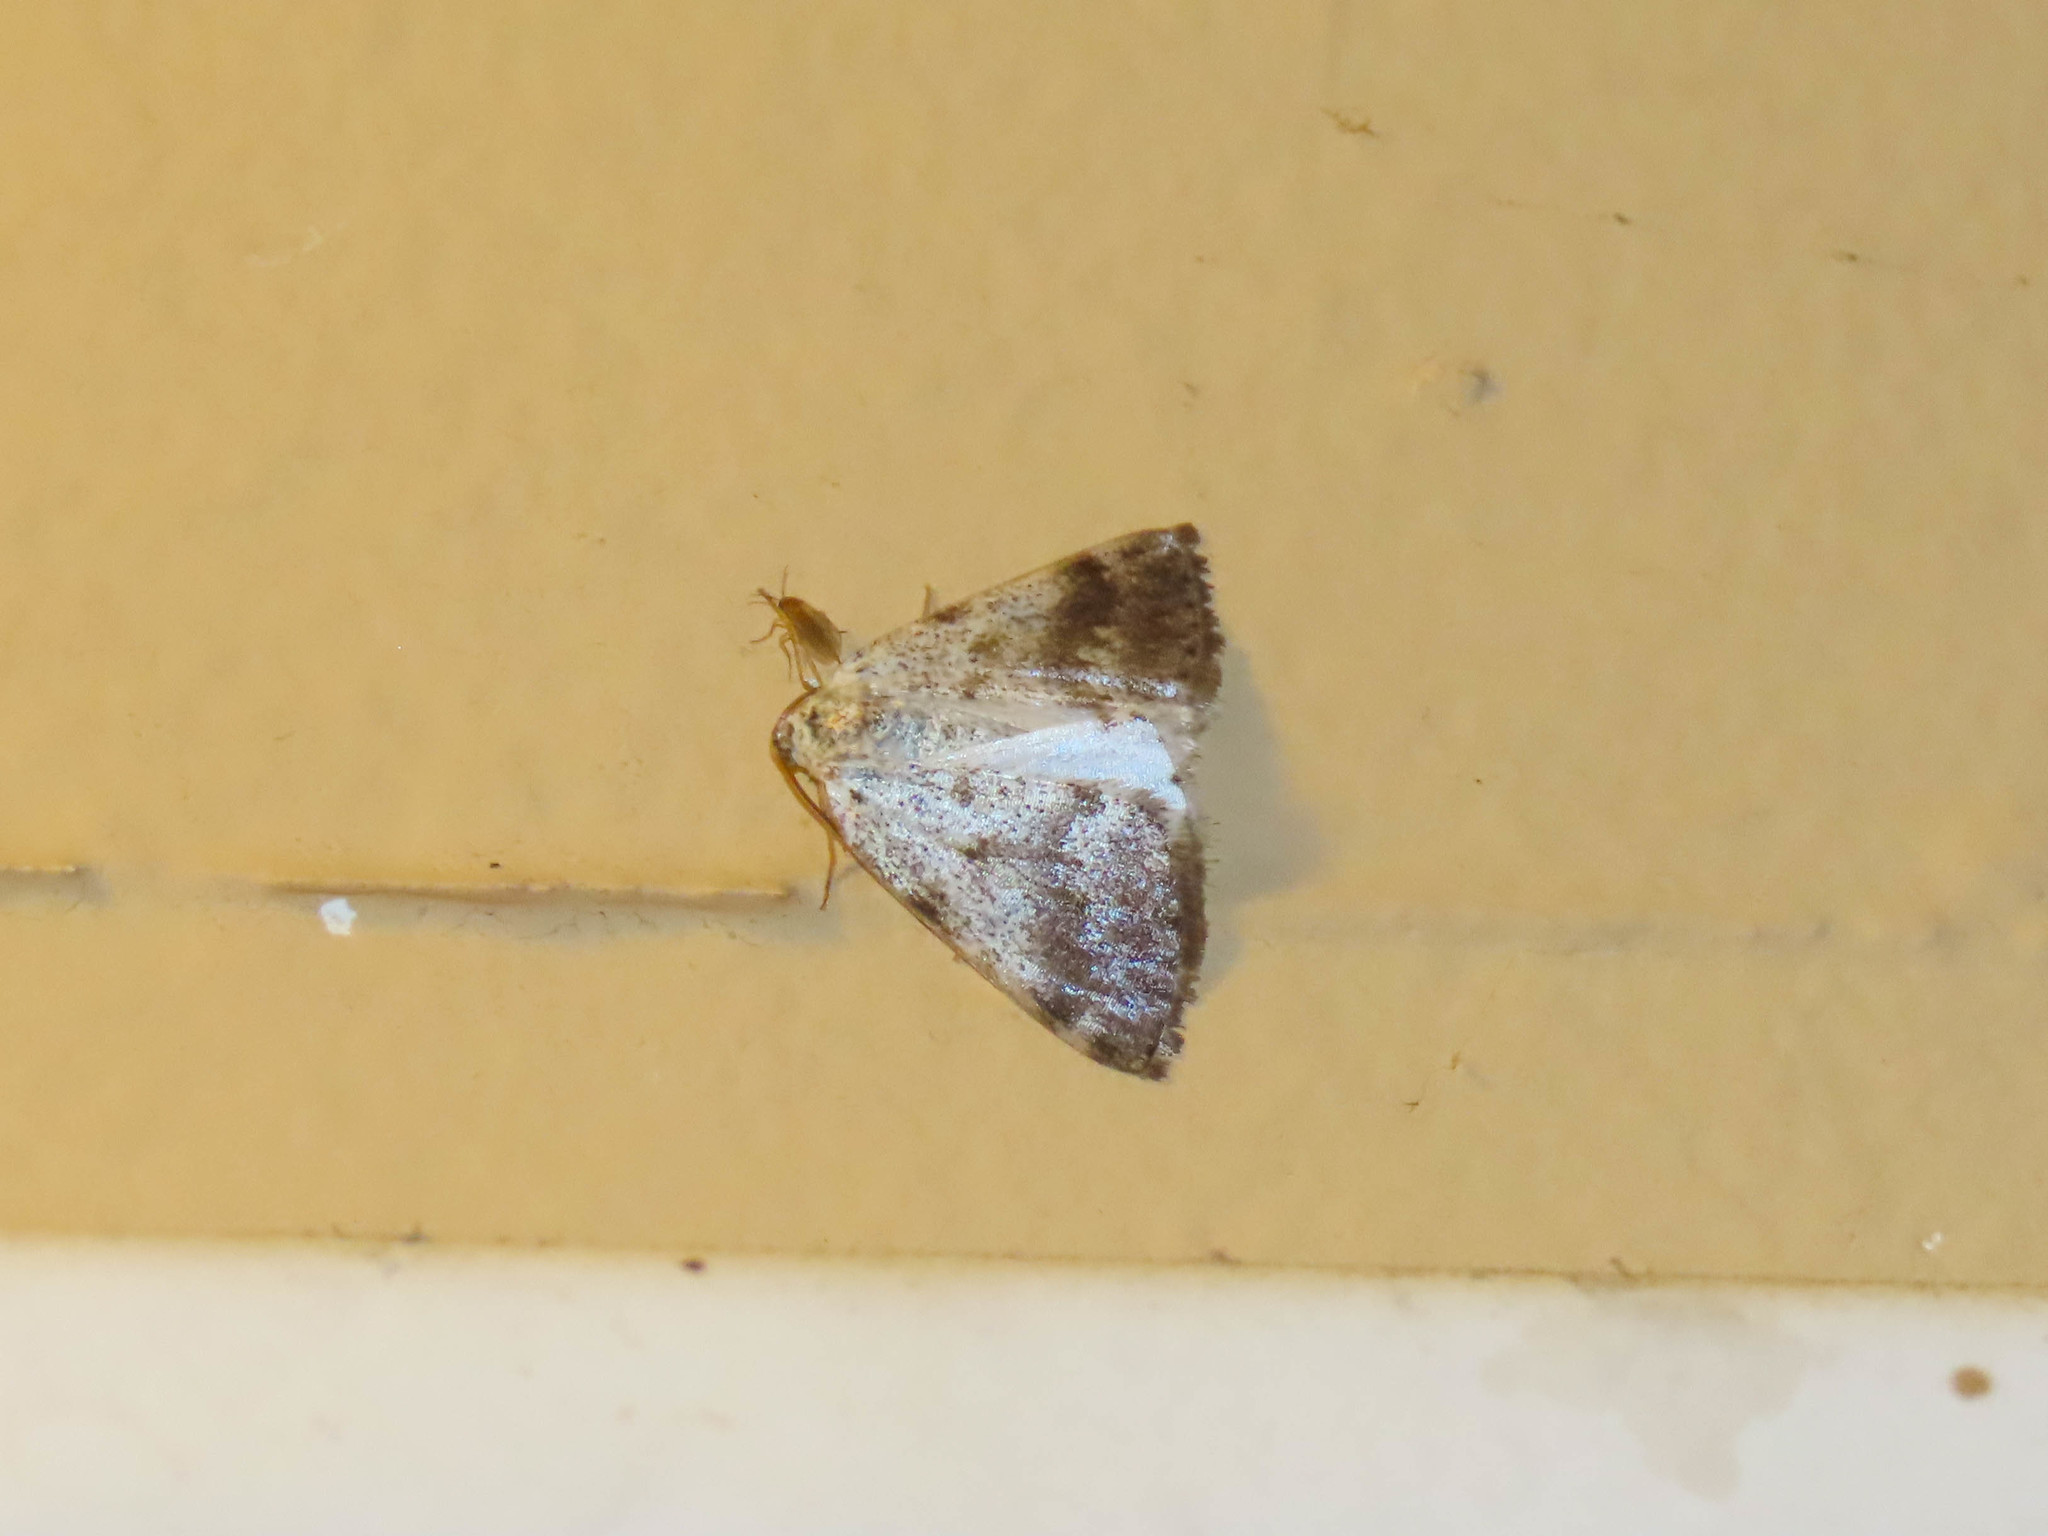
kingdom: Animalia
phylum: Arthropoda
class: Insecta
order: Lepidoptera
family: Geometridae
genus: Lomographa
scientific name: Lomographa semiclarata
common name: Bluish spring moth
